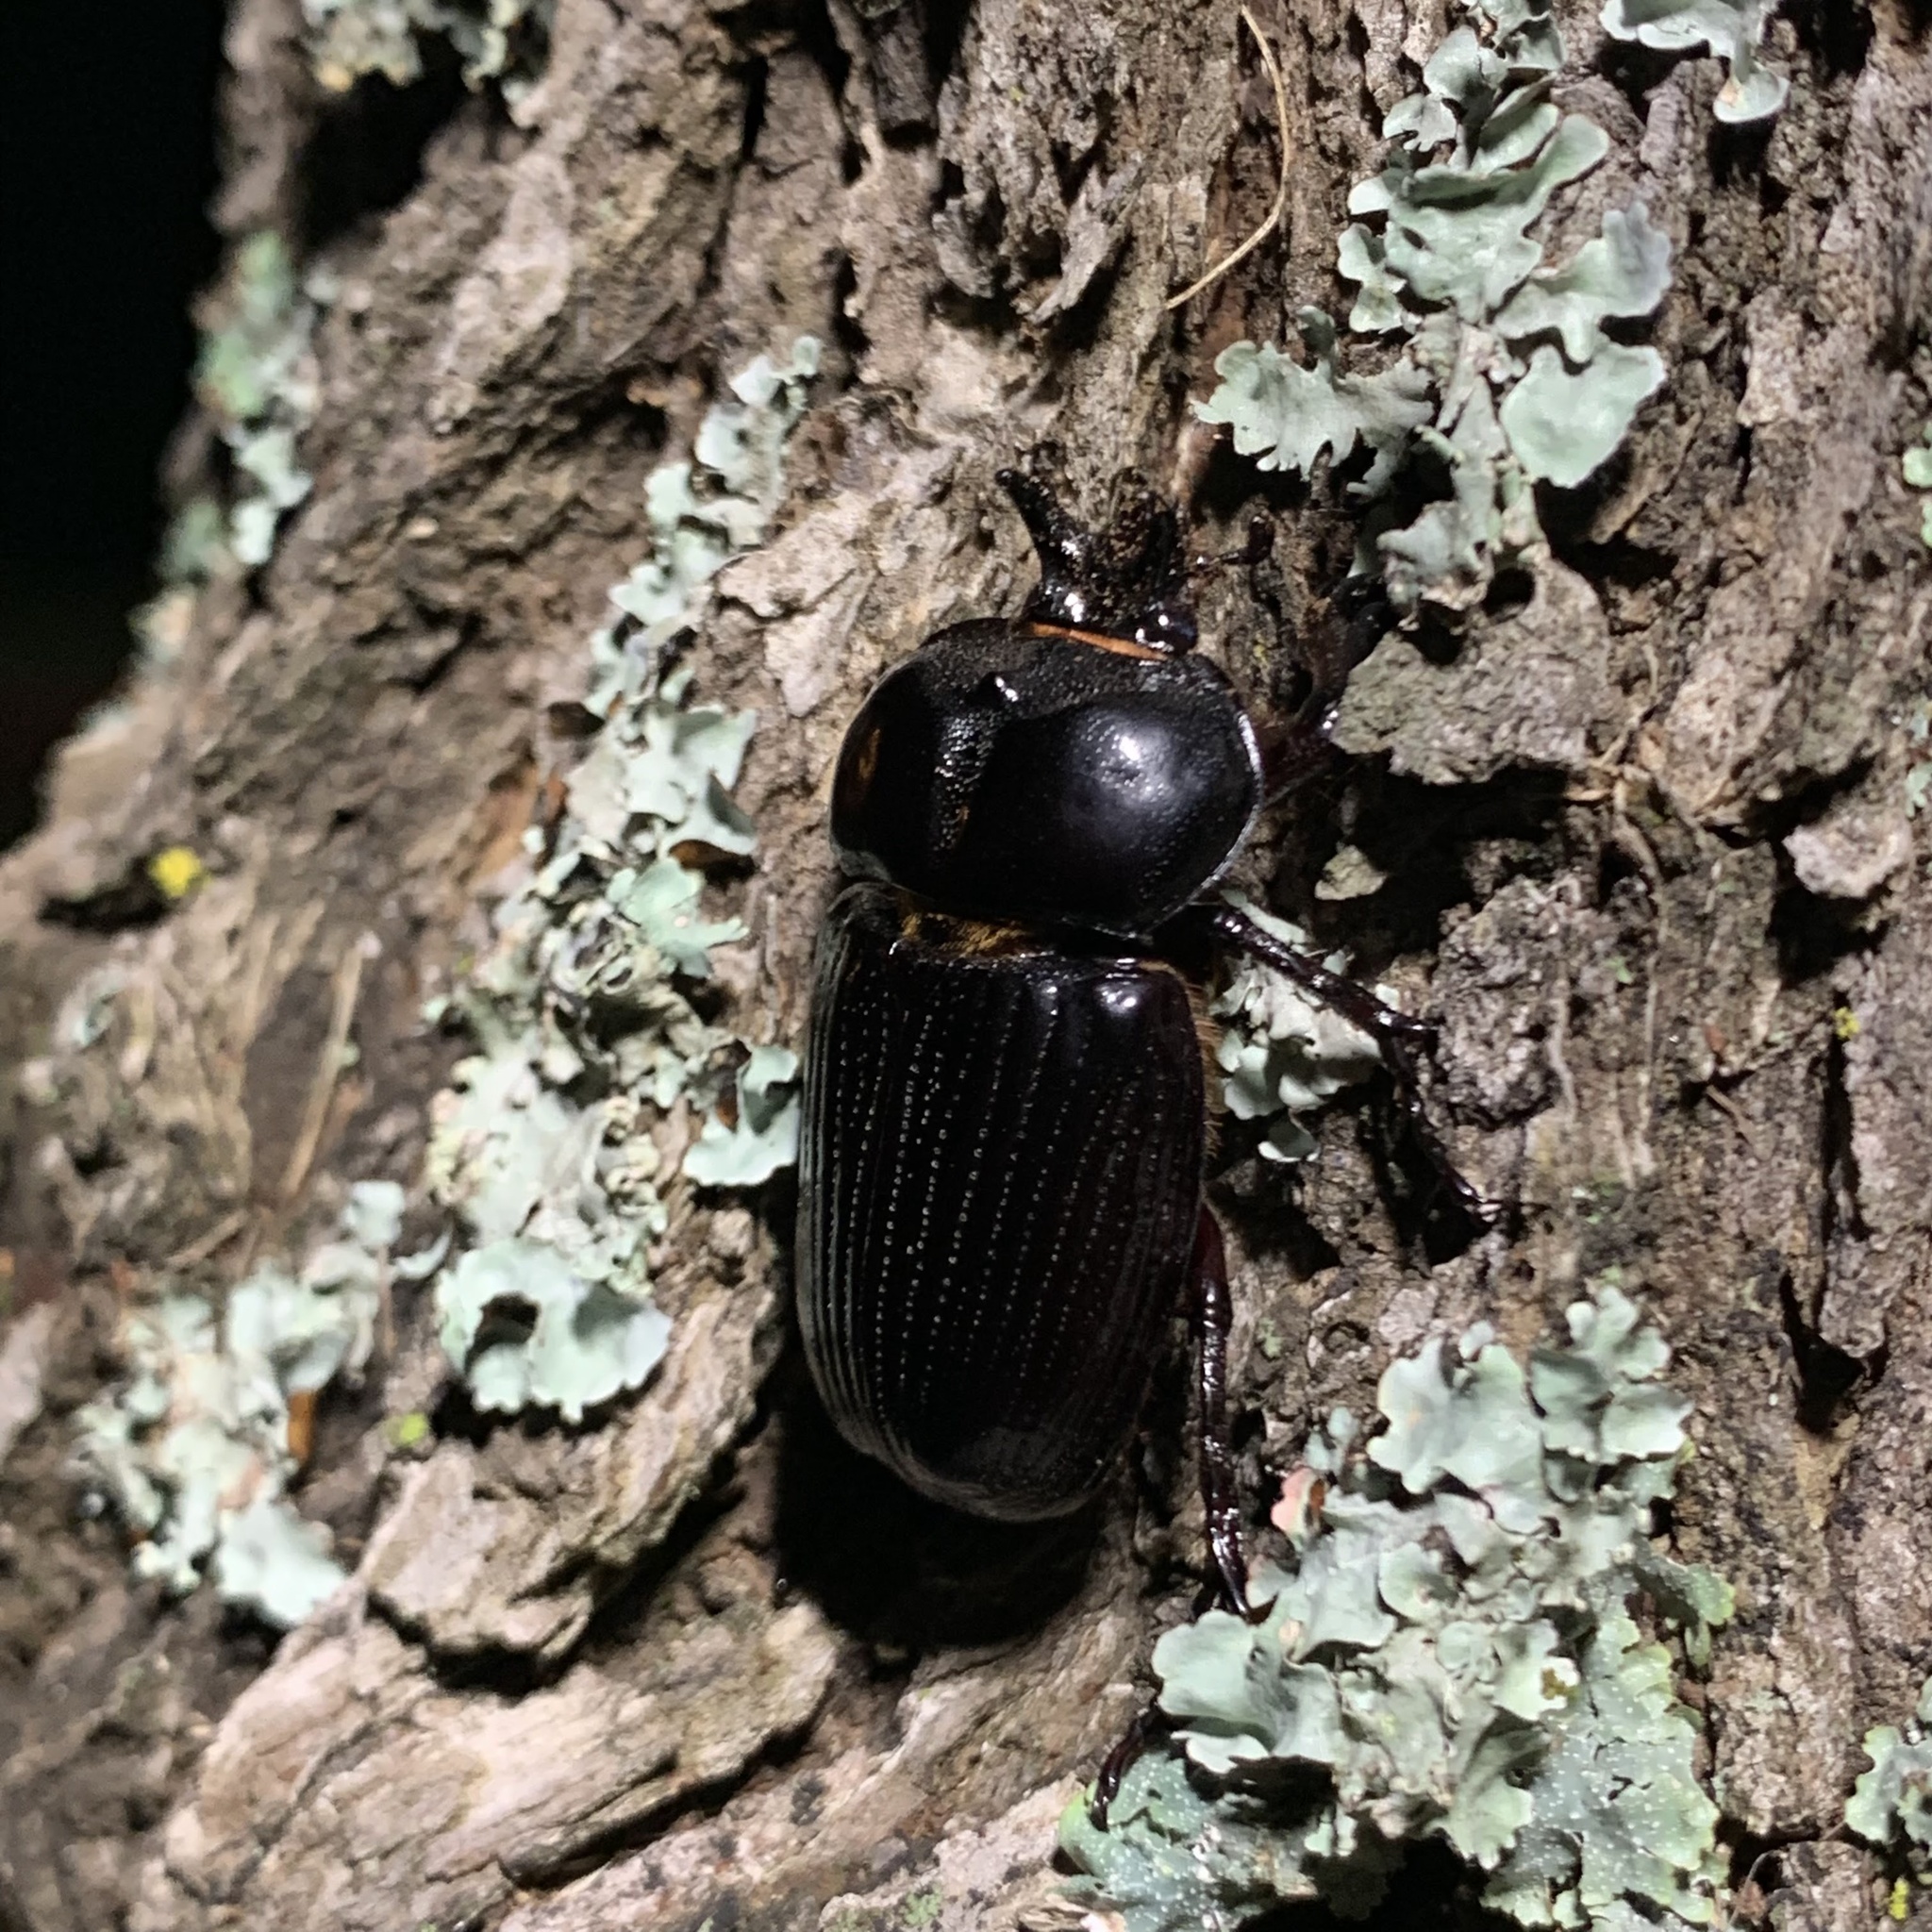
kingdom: Animalia
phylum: Arthropoda
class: Insecta
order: Coleoptera
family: Scarabaeidae
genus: Phileurus
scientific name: Phileurus truncatus
